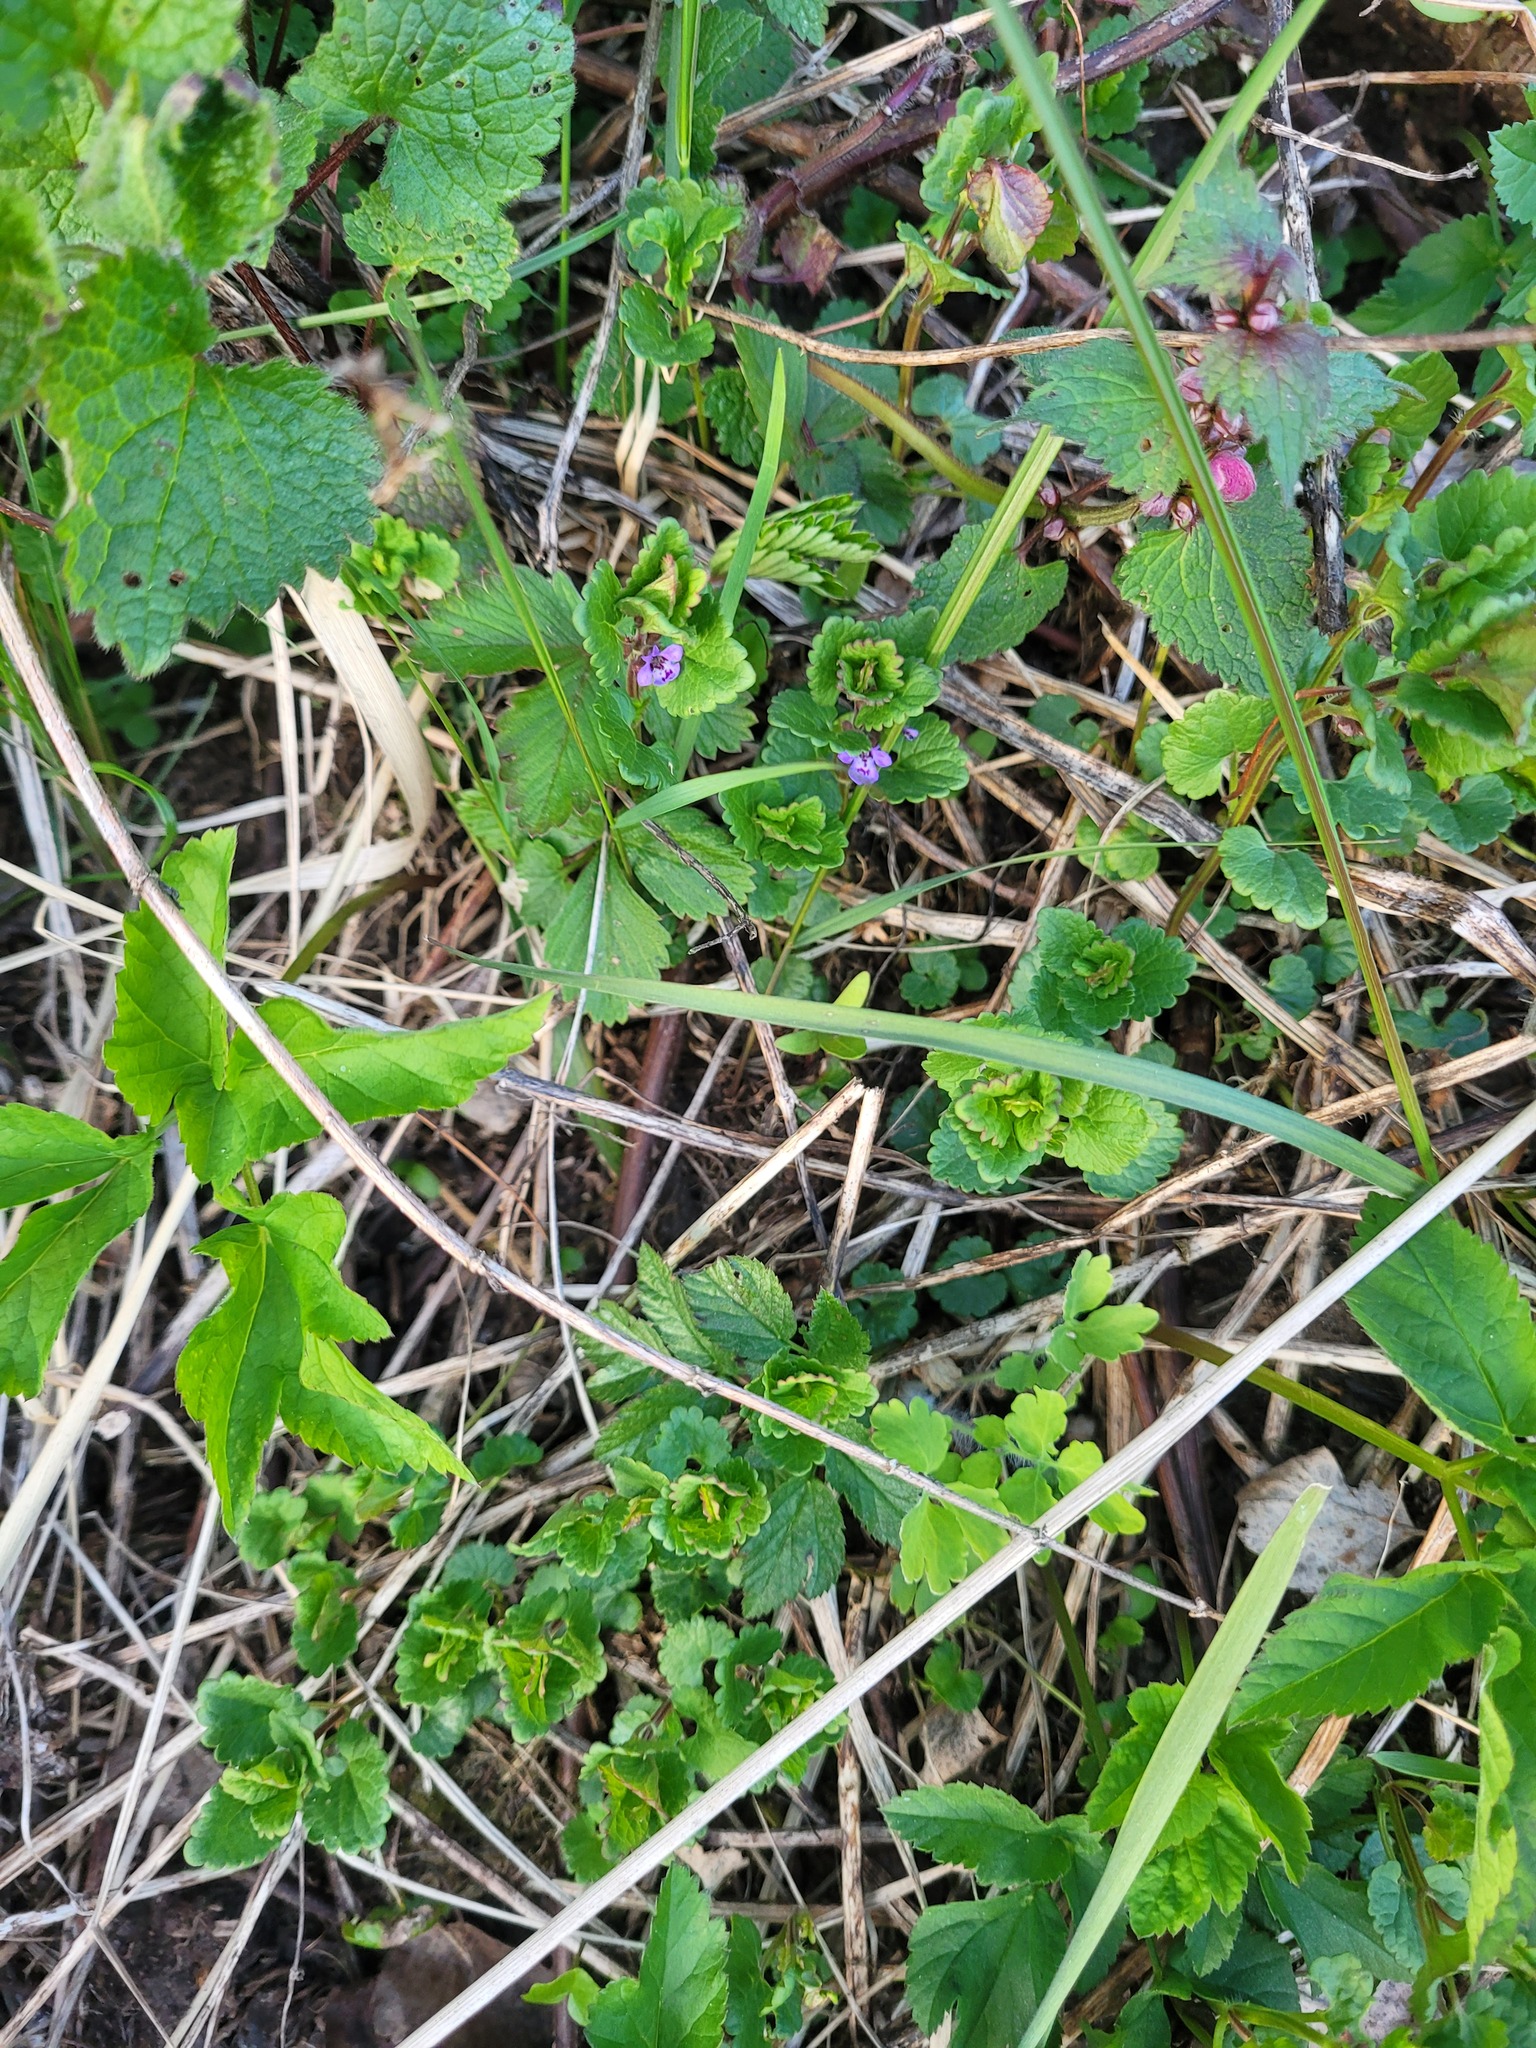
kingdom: Plantae
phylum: Tracheophyta
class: Magnoliopsida
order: Lamiales
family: Lamiaceae
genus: Glechoma
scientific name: Glechoma hederacea
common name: Ground ivy
